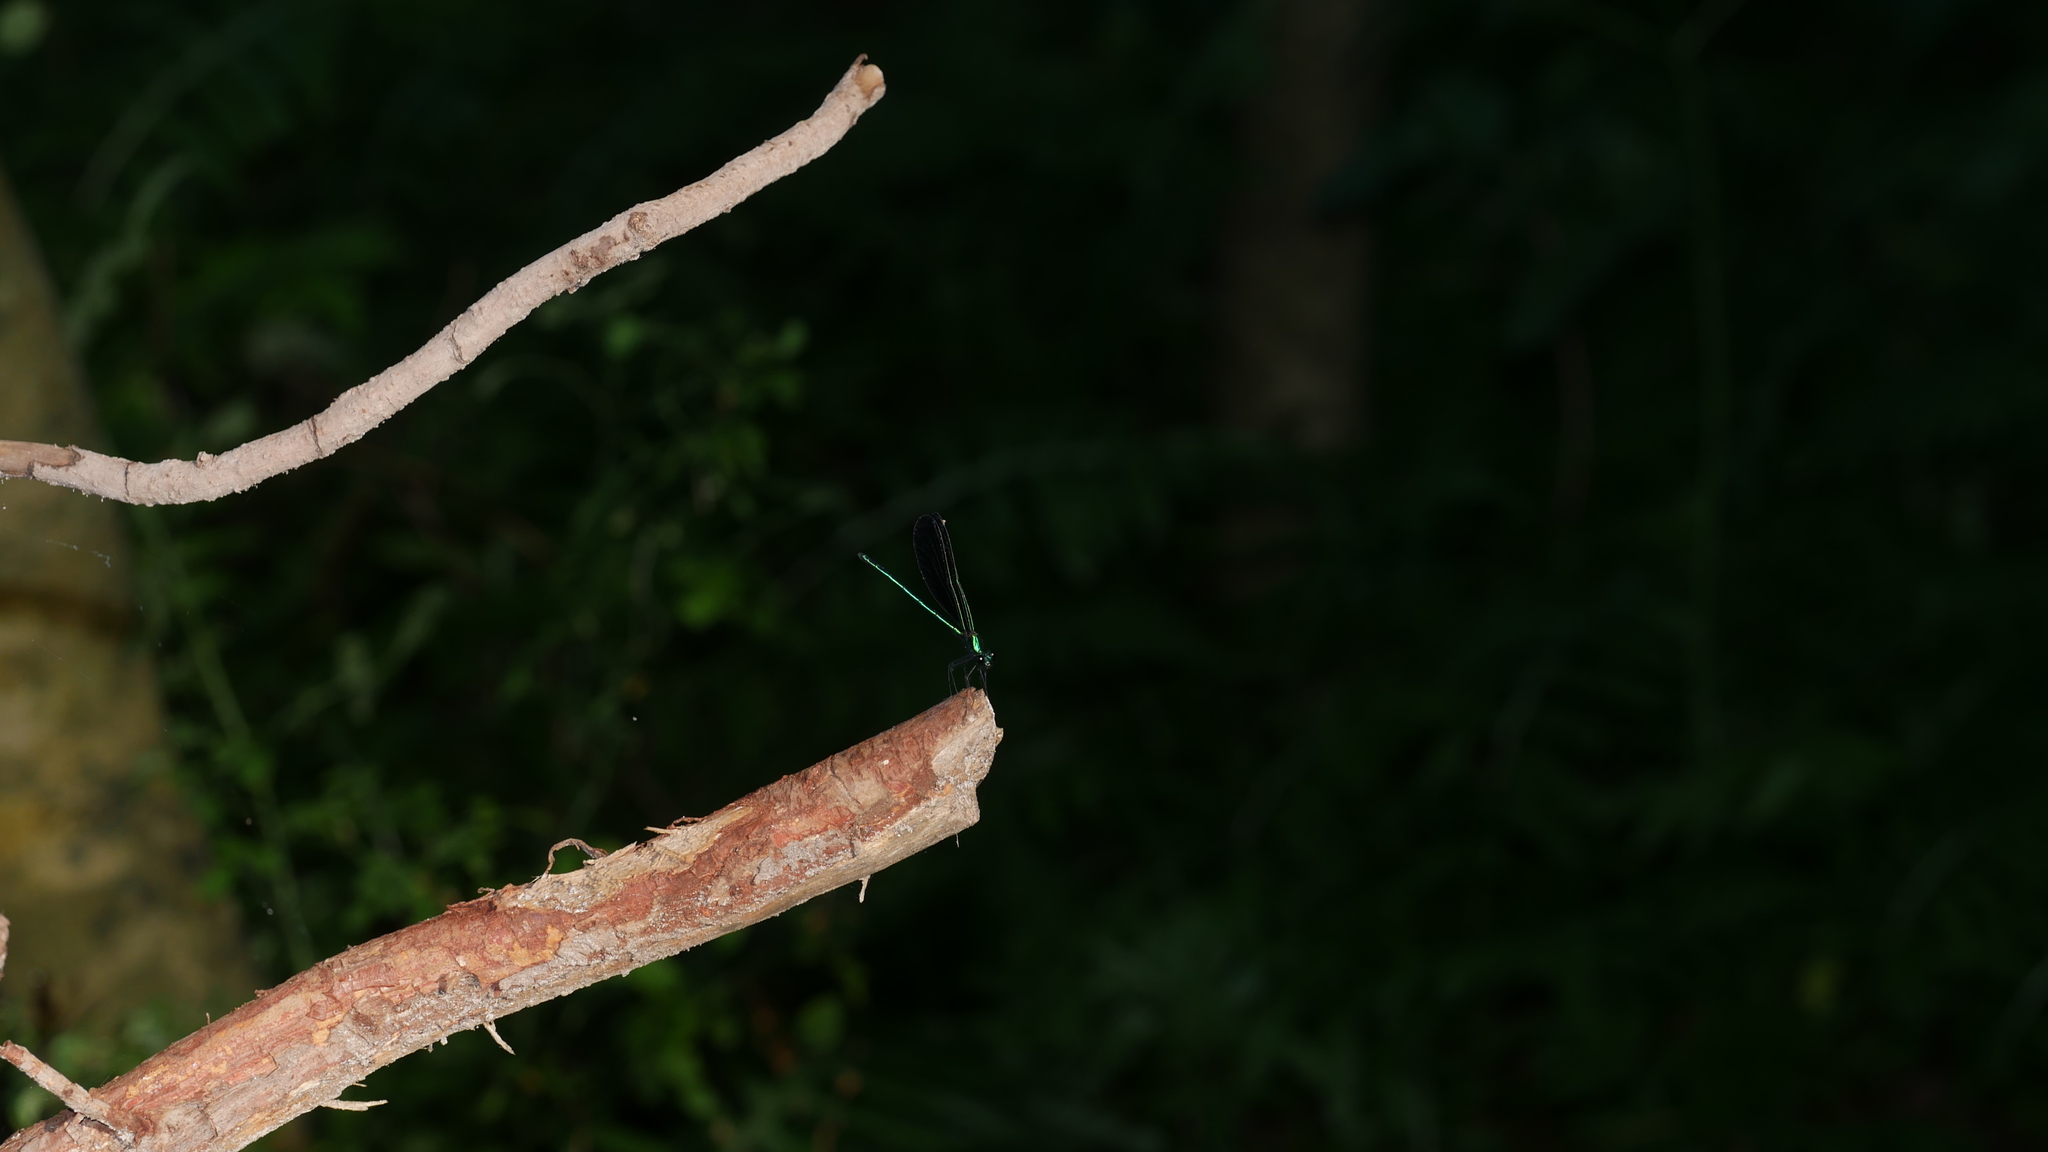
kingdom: Animalia
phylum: Arthropoda
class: Insecta
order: Odonata
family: Calopterygidae
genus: Calopteryx
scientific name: Calopteryx maculata
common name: Ebony jewelwing
